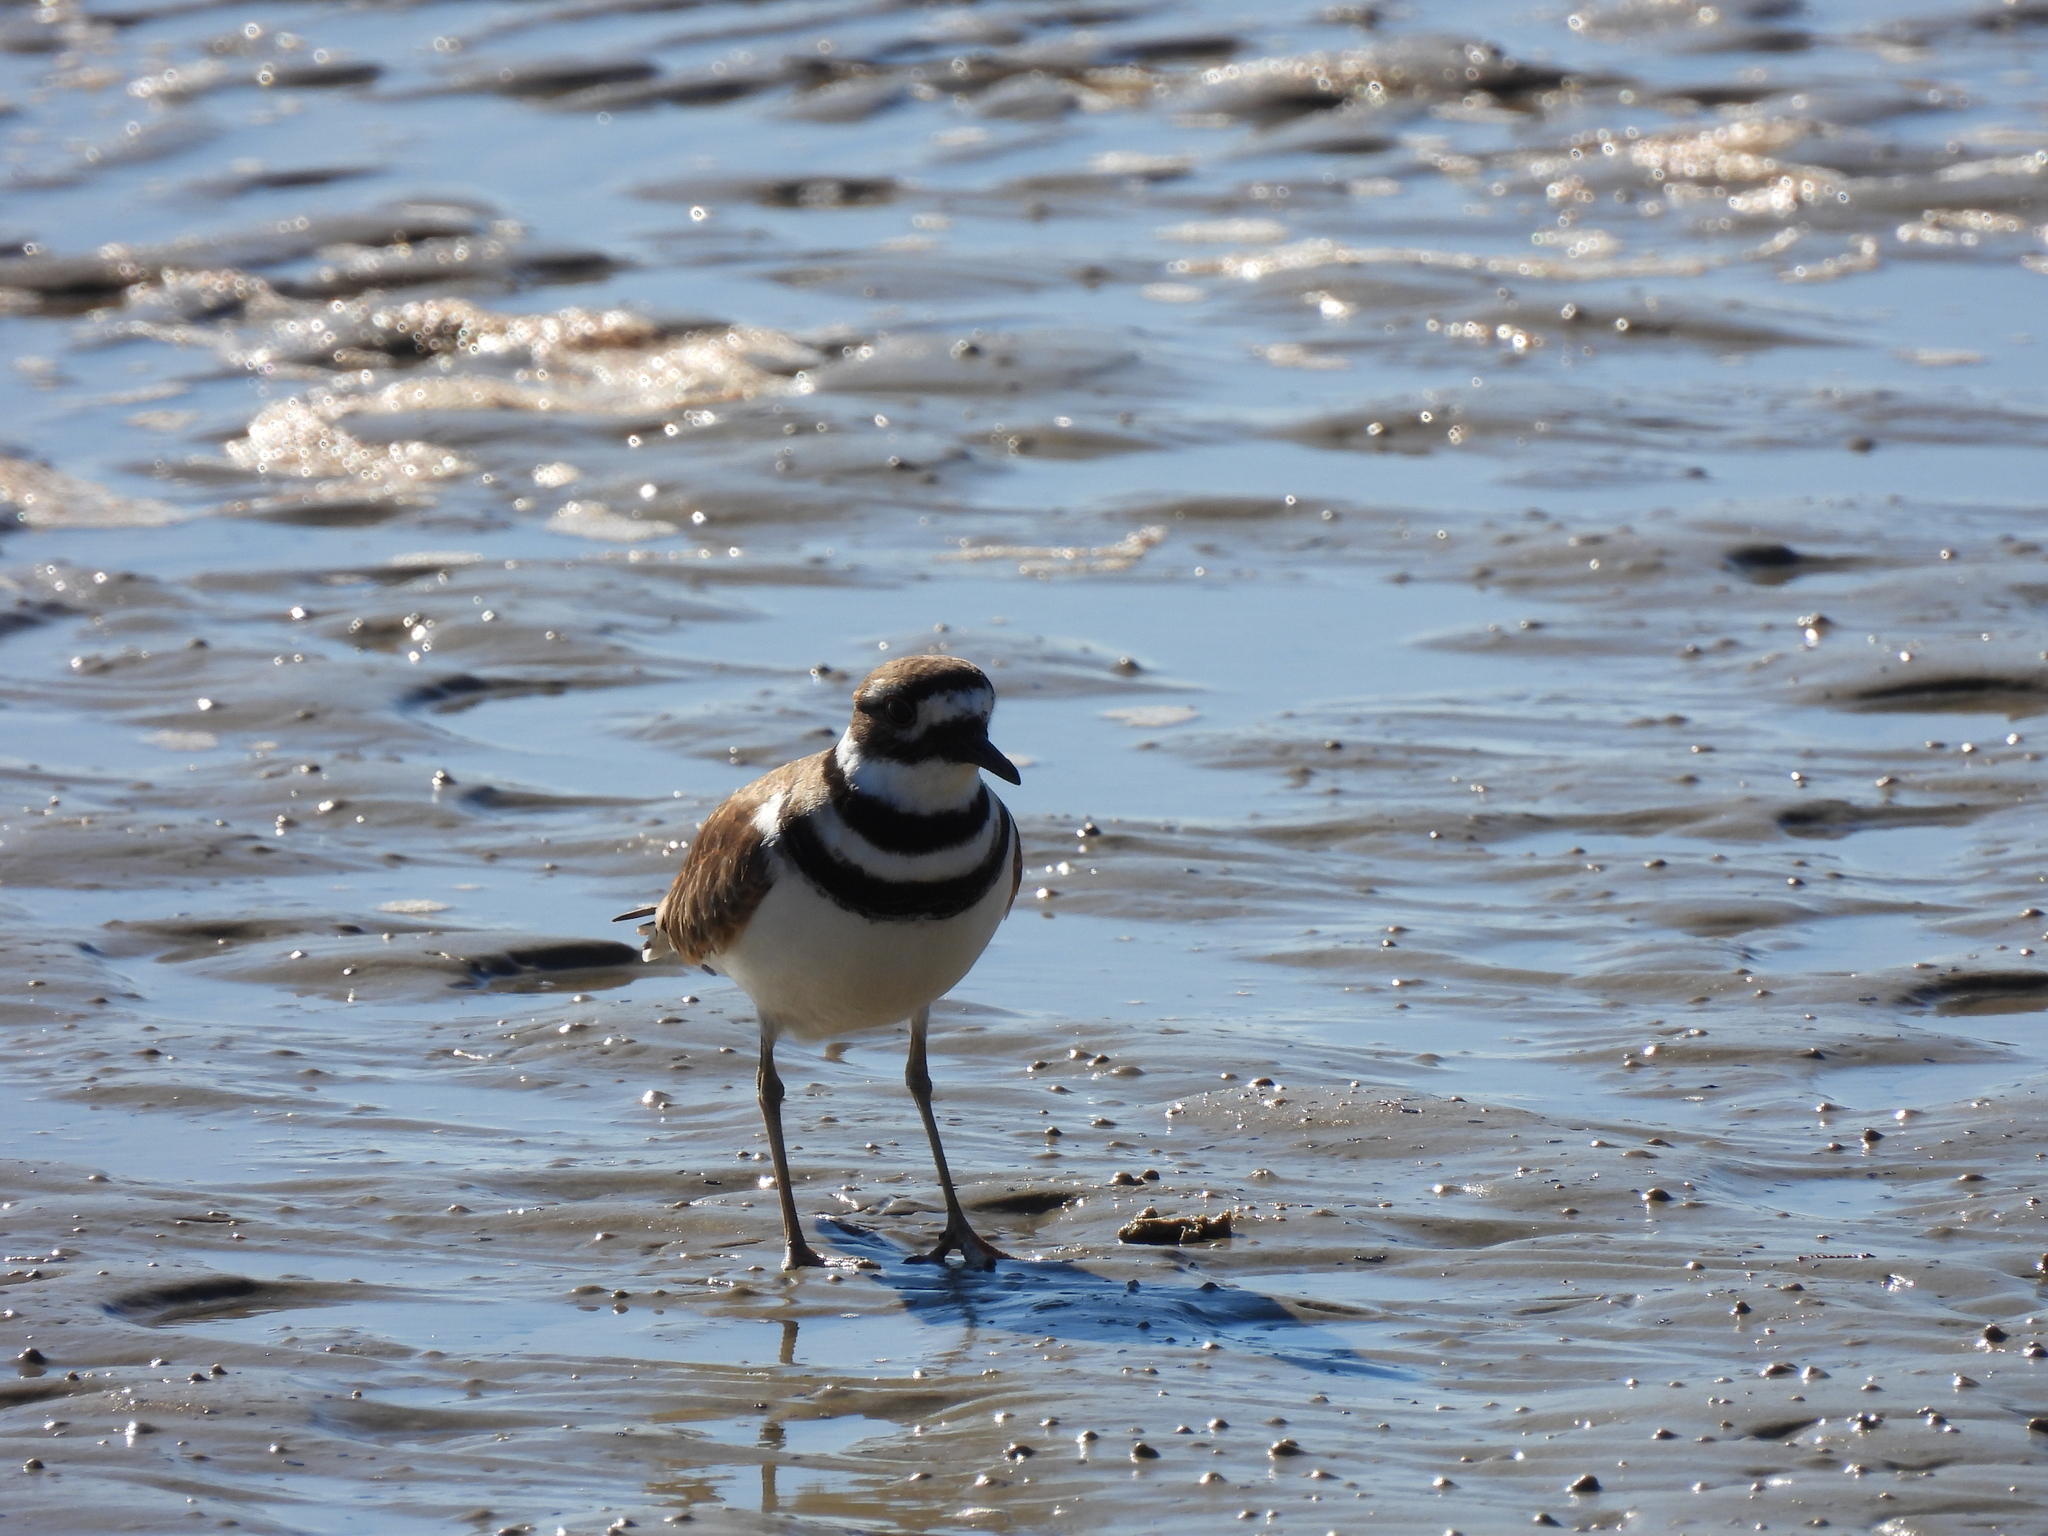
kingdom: Animalia
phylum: Chordata
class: Aves
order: Charadriiformes
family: Charadriidae
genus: Charadrius
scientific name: Charadrius vociferus
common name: Killdeer
